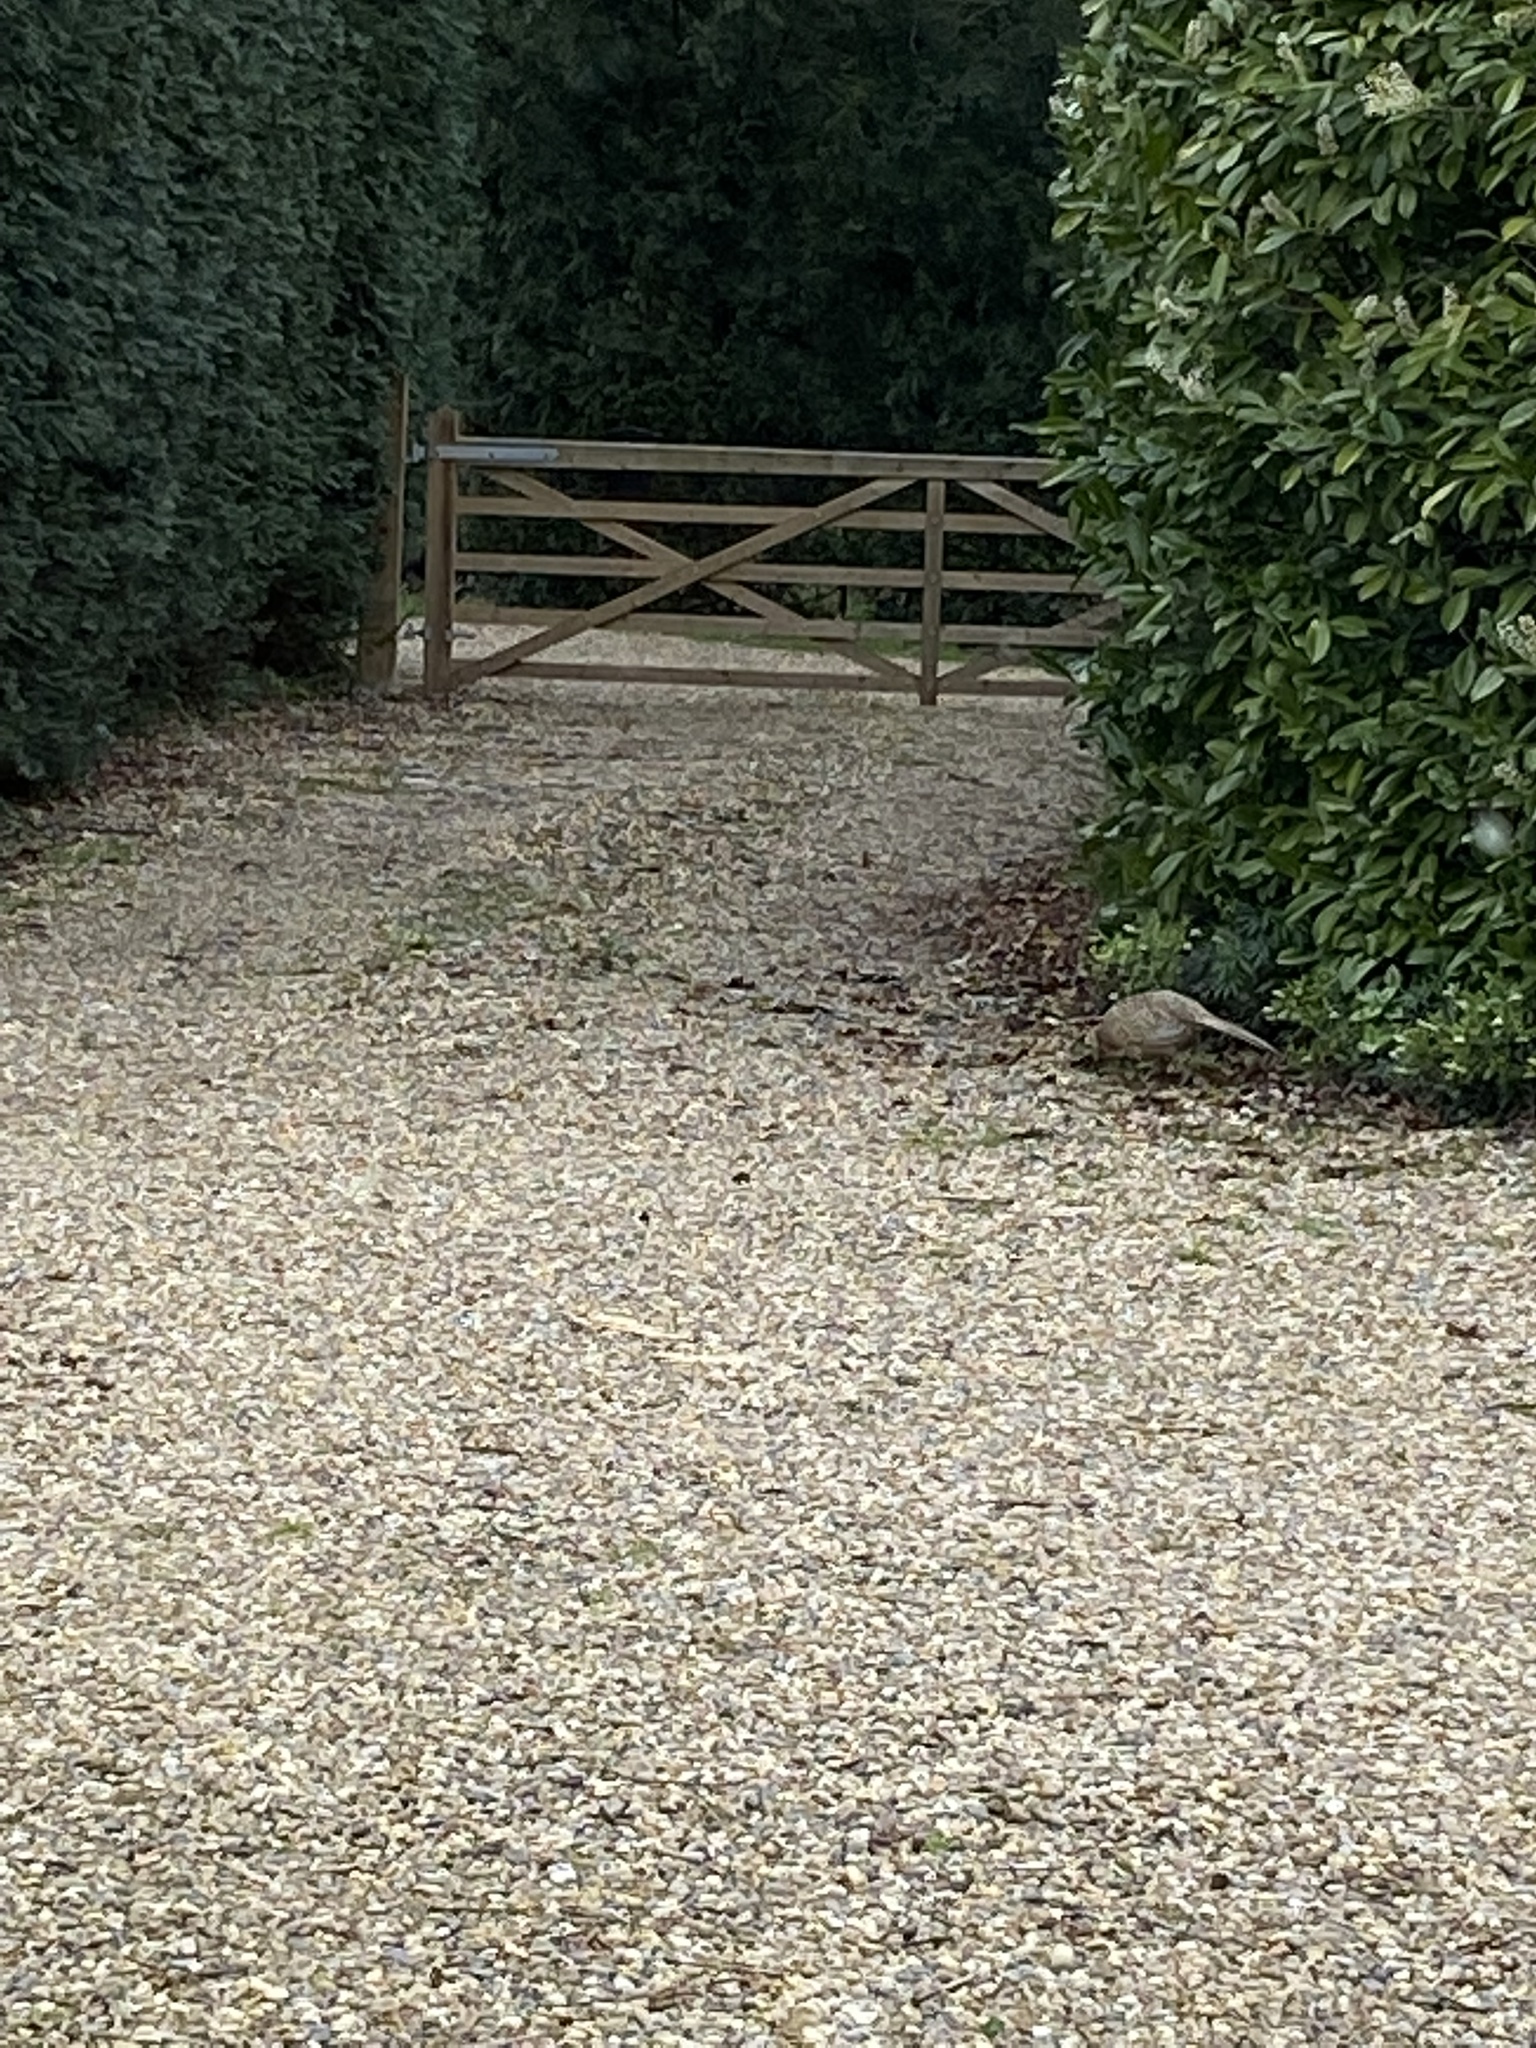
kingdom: Animalia
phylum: Chordata
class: Aves
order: Galliformes
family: Phasianidae
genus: Phasianus
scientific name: Phasianus colchicus
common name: Common pheasant
